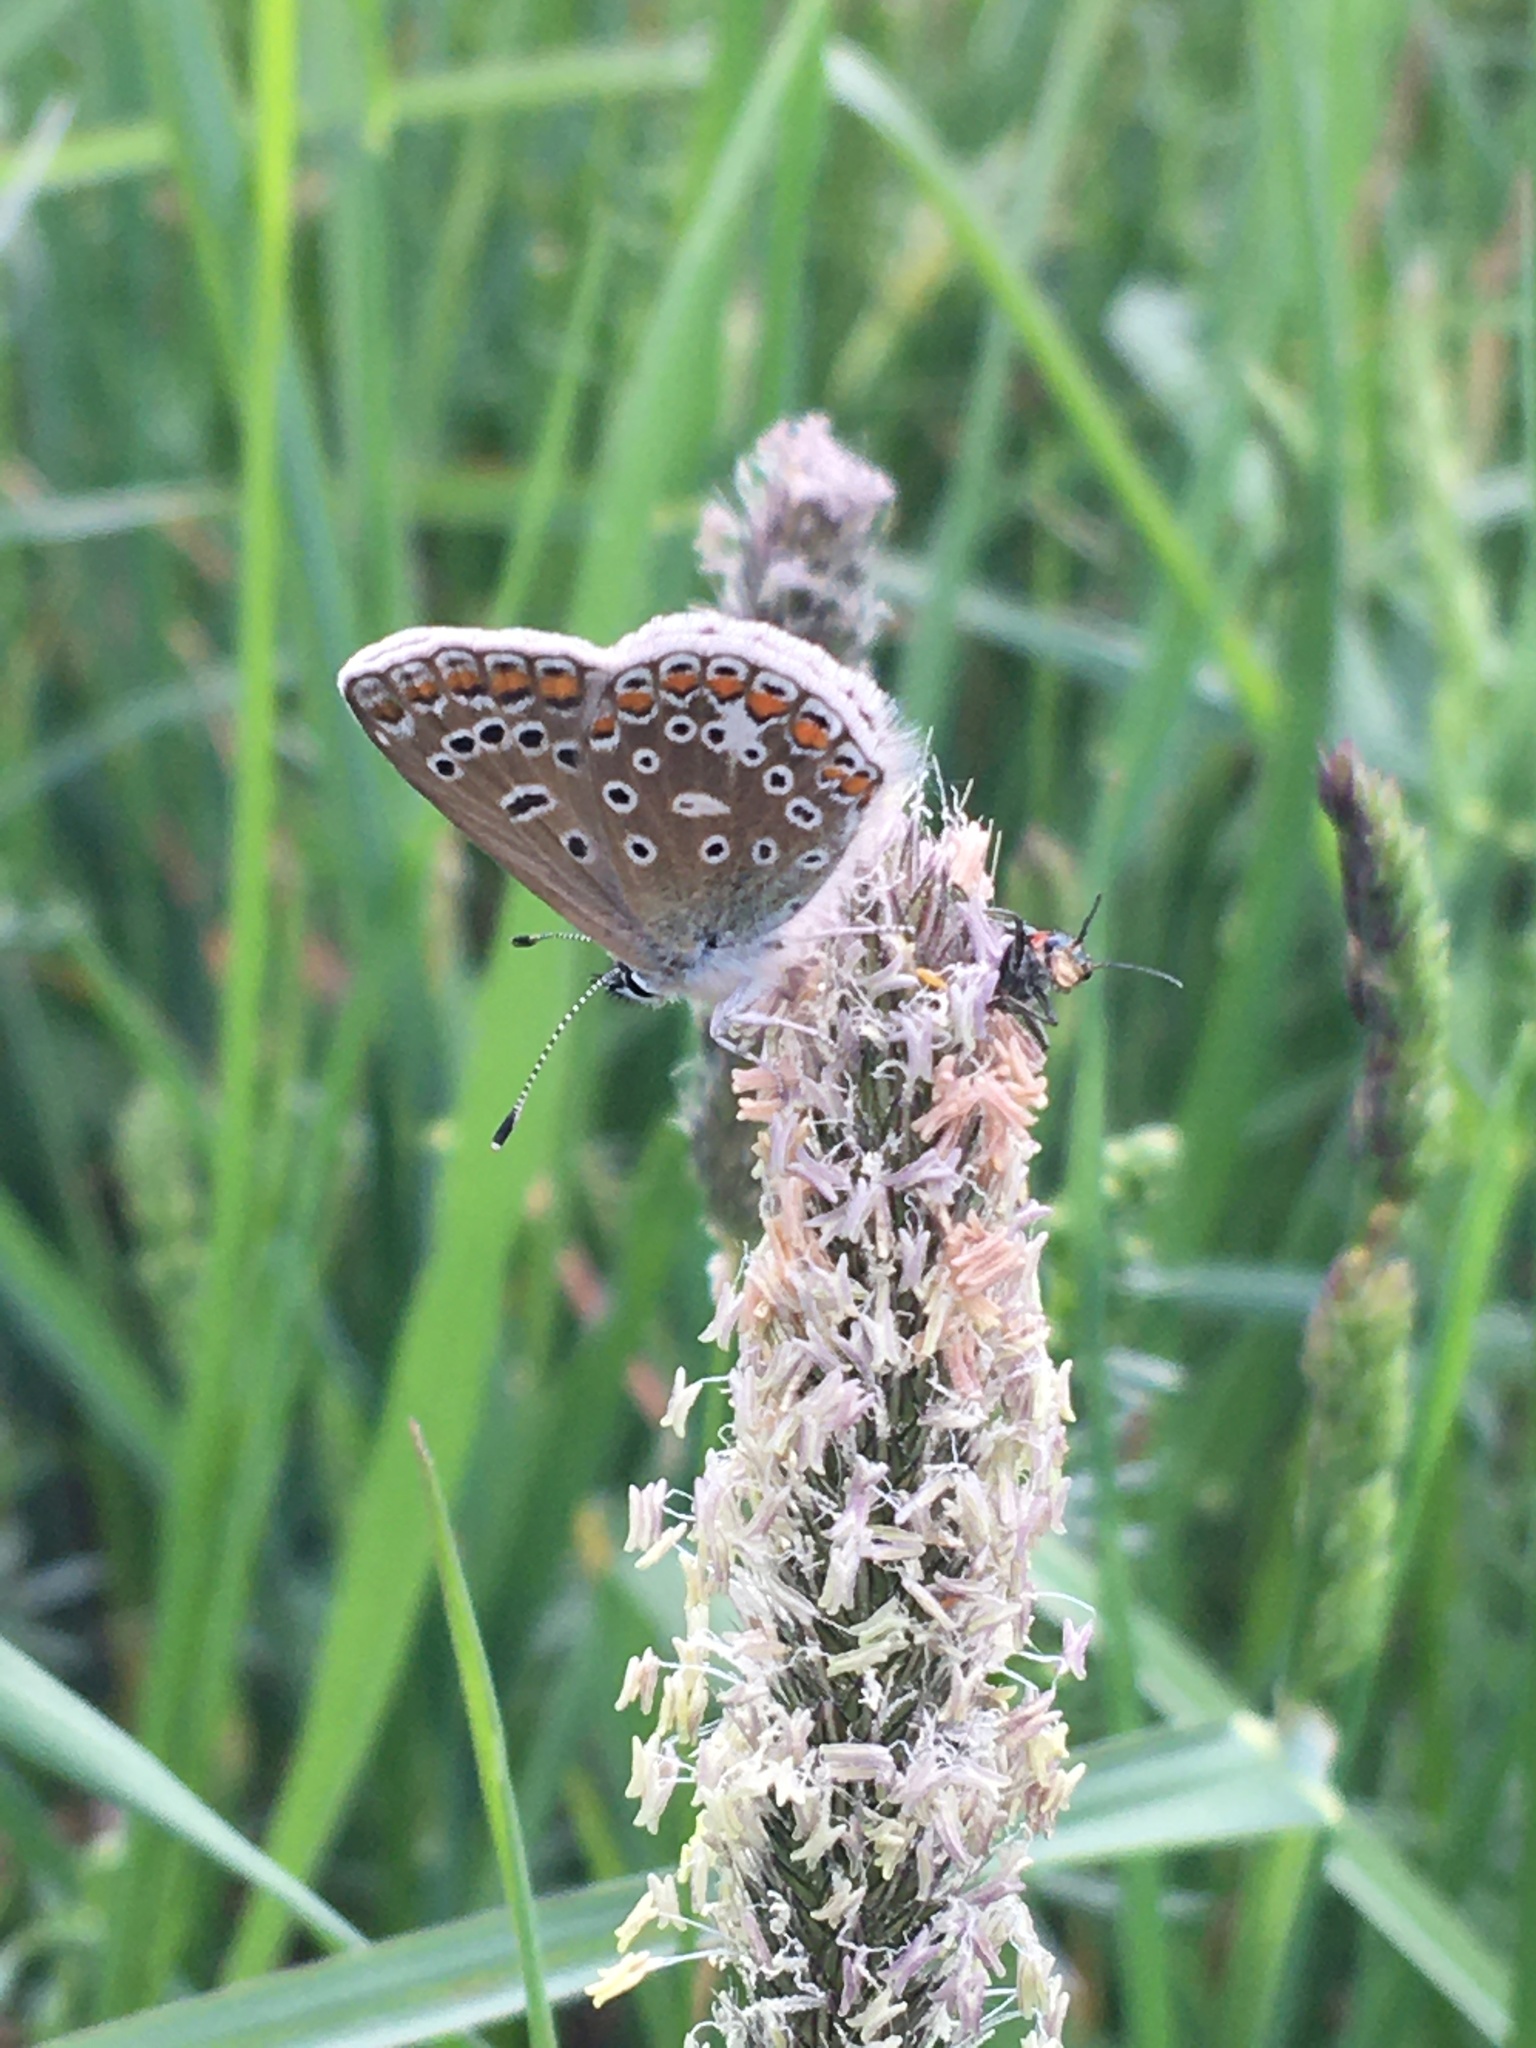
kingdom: Animalia
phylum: Arthropoda
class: Insecta
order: Lepidoptera
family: Lycaenidae
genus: Polyommatus
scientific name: Polyommatus icarus
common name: Common blue
